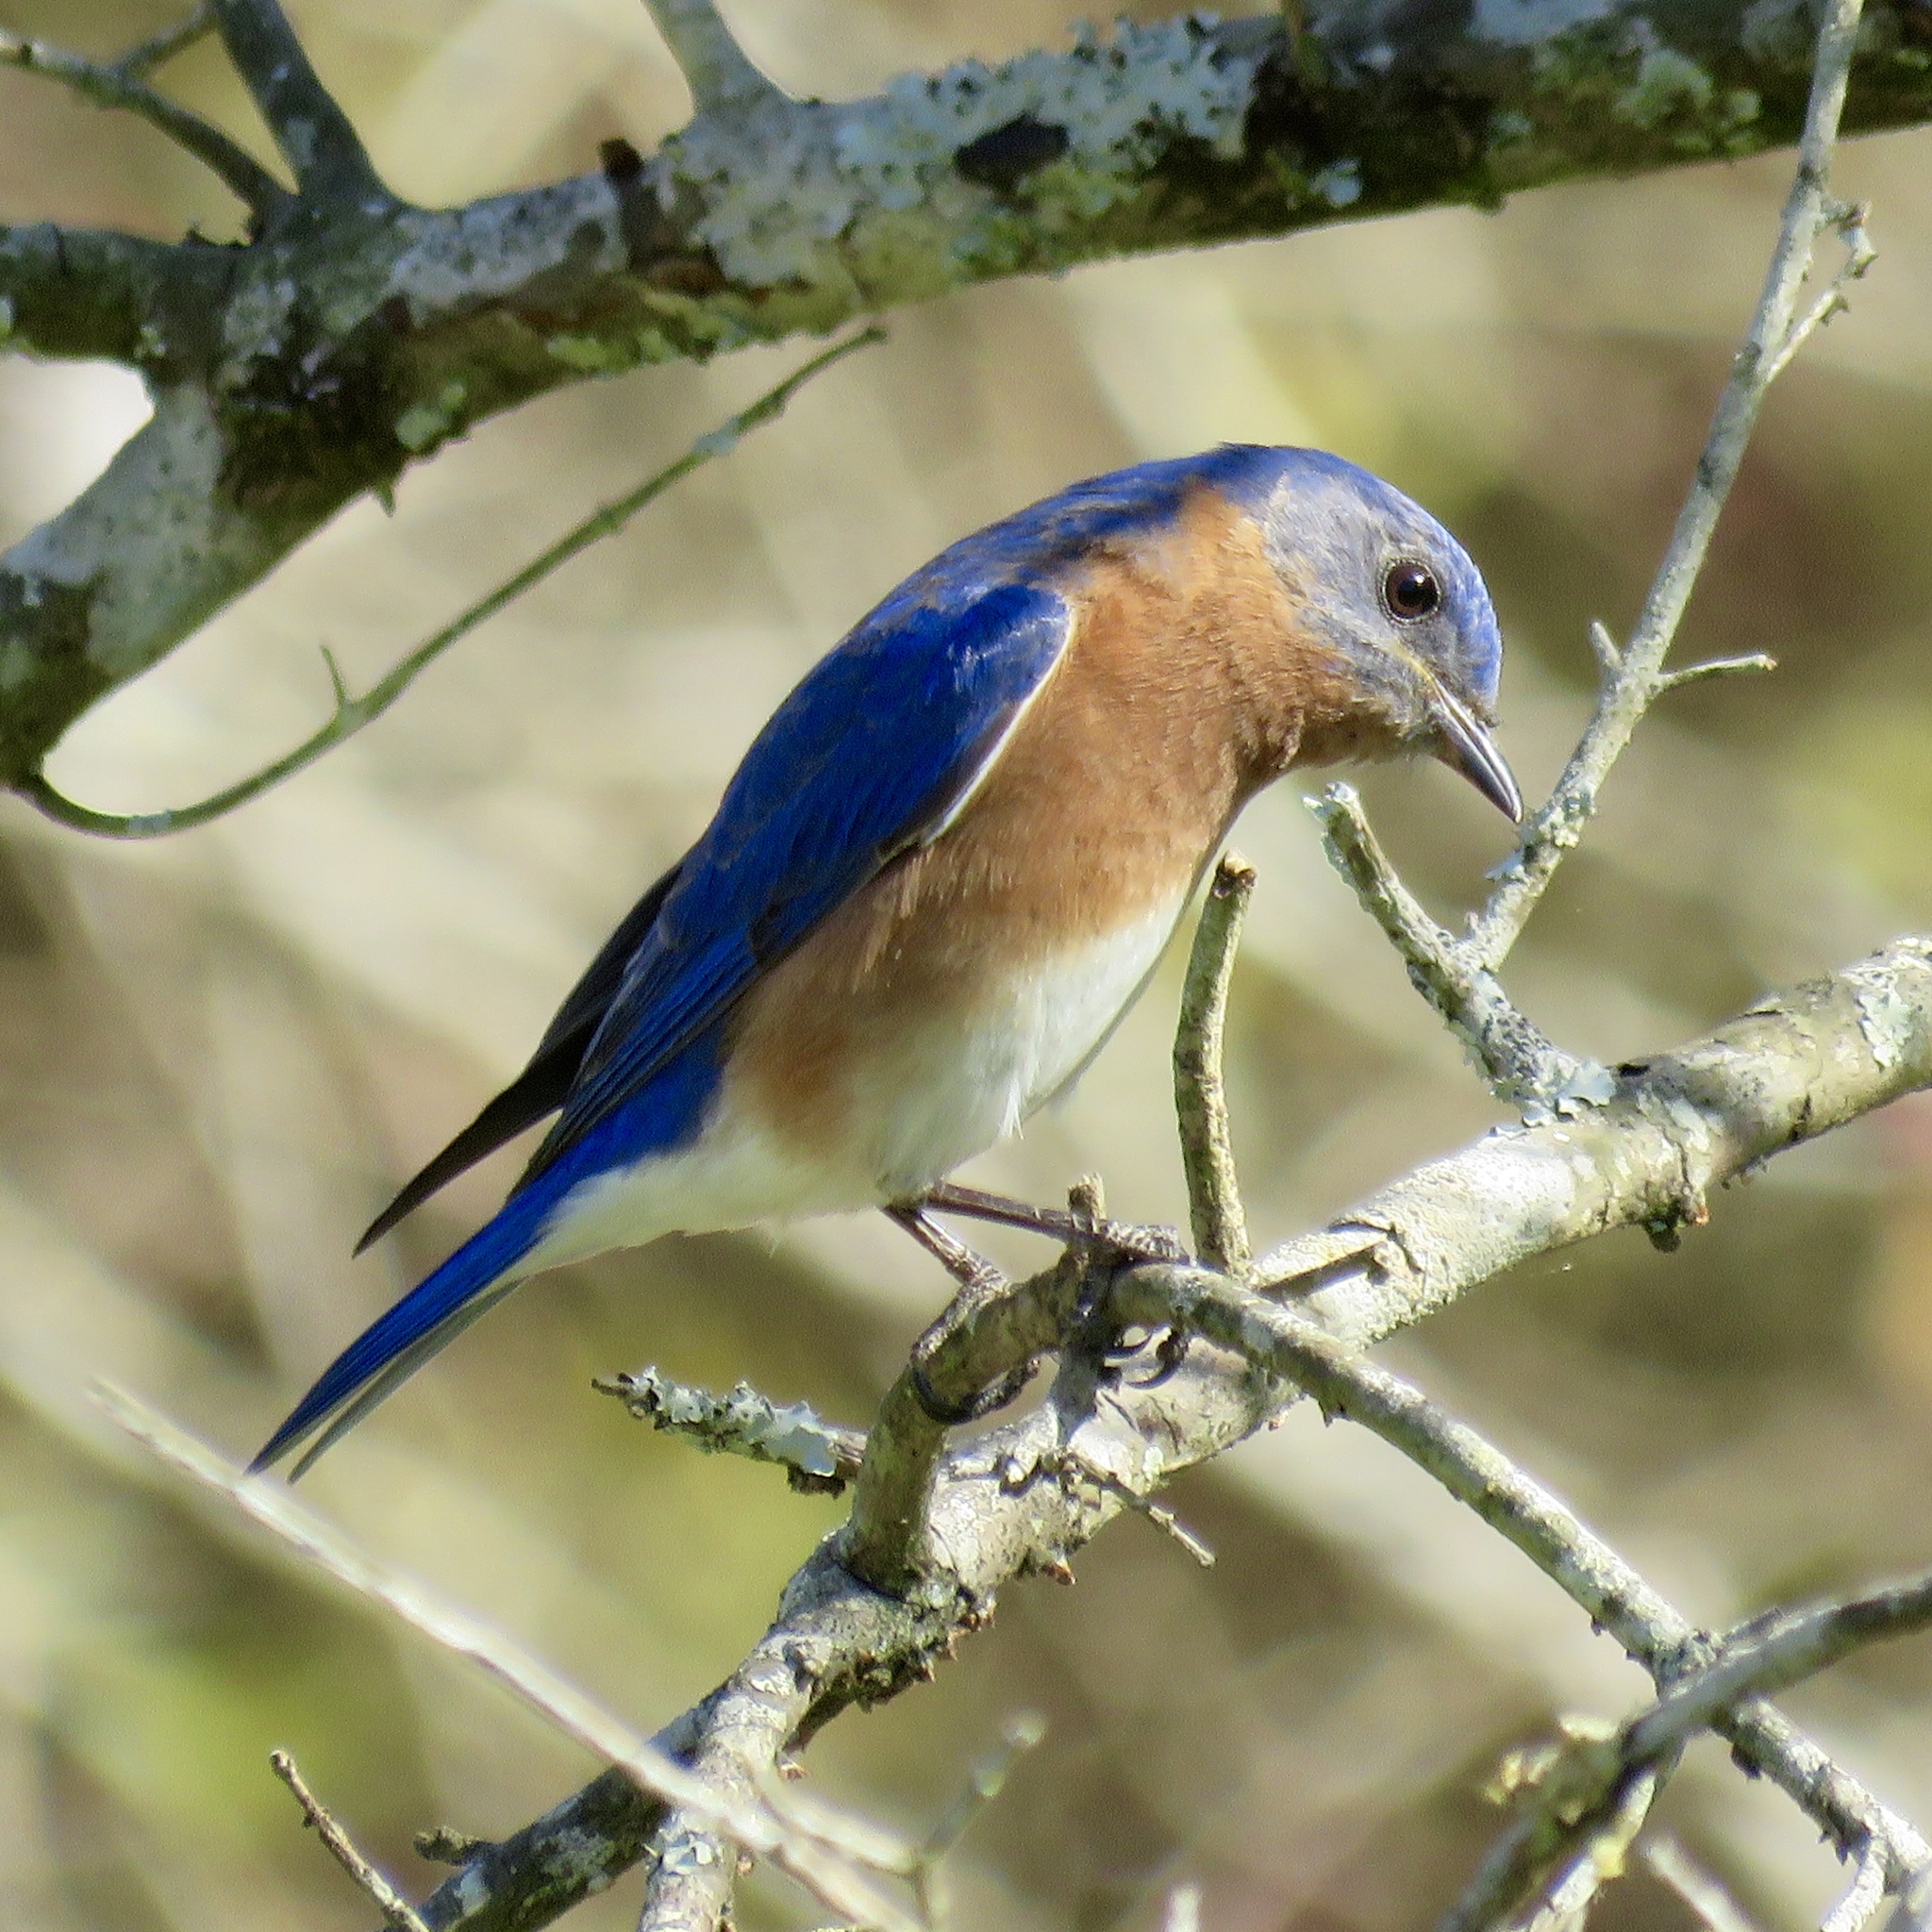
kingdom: Animalia
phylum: Chordata
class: Aves
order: Passeriformes
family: Turdidae
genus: Sialia
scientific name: Sialia sialis
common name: Eastern bluebird
